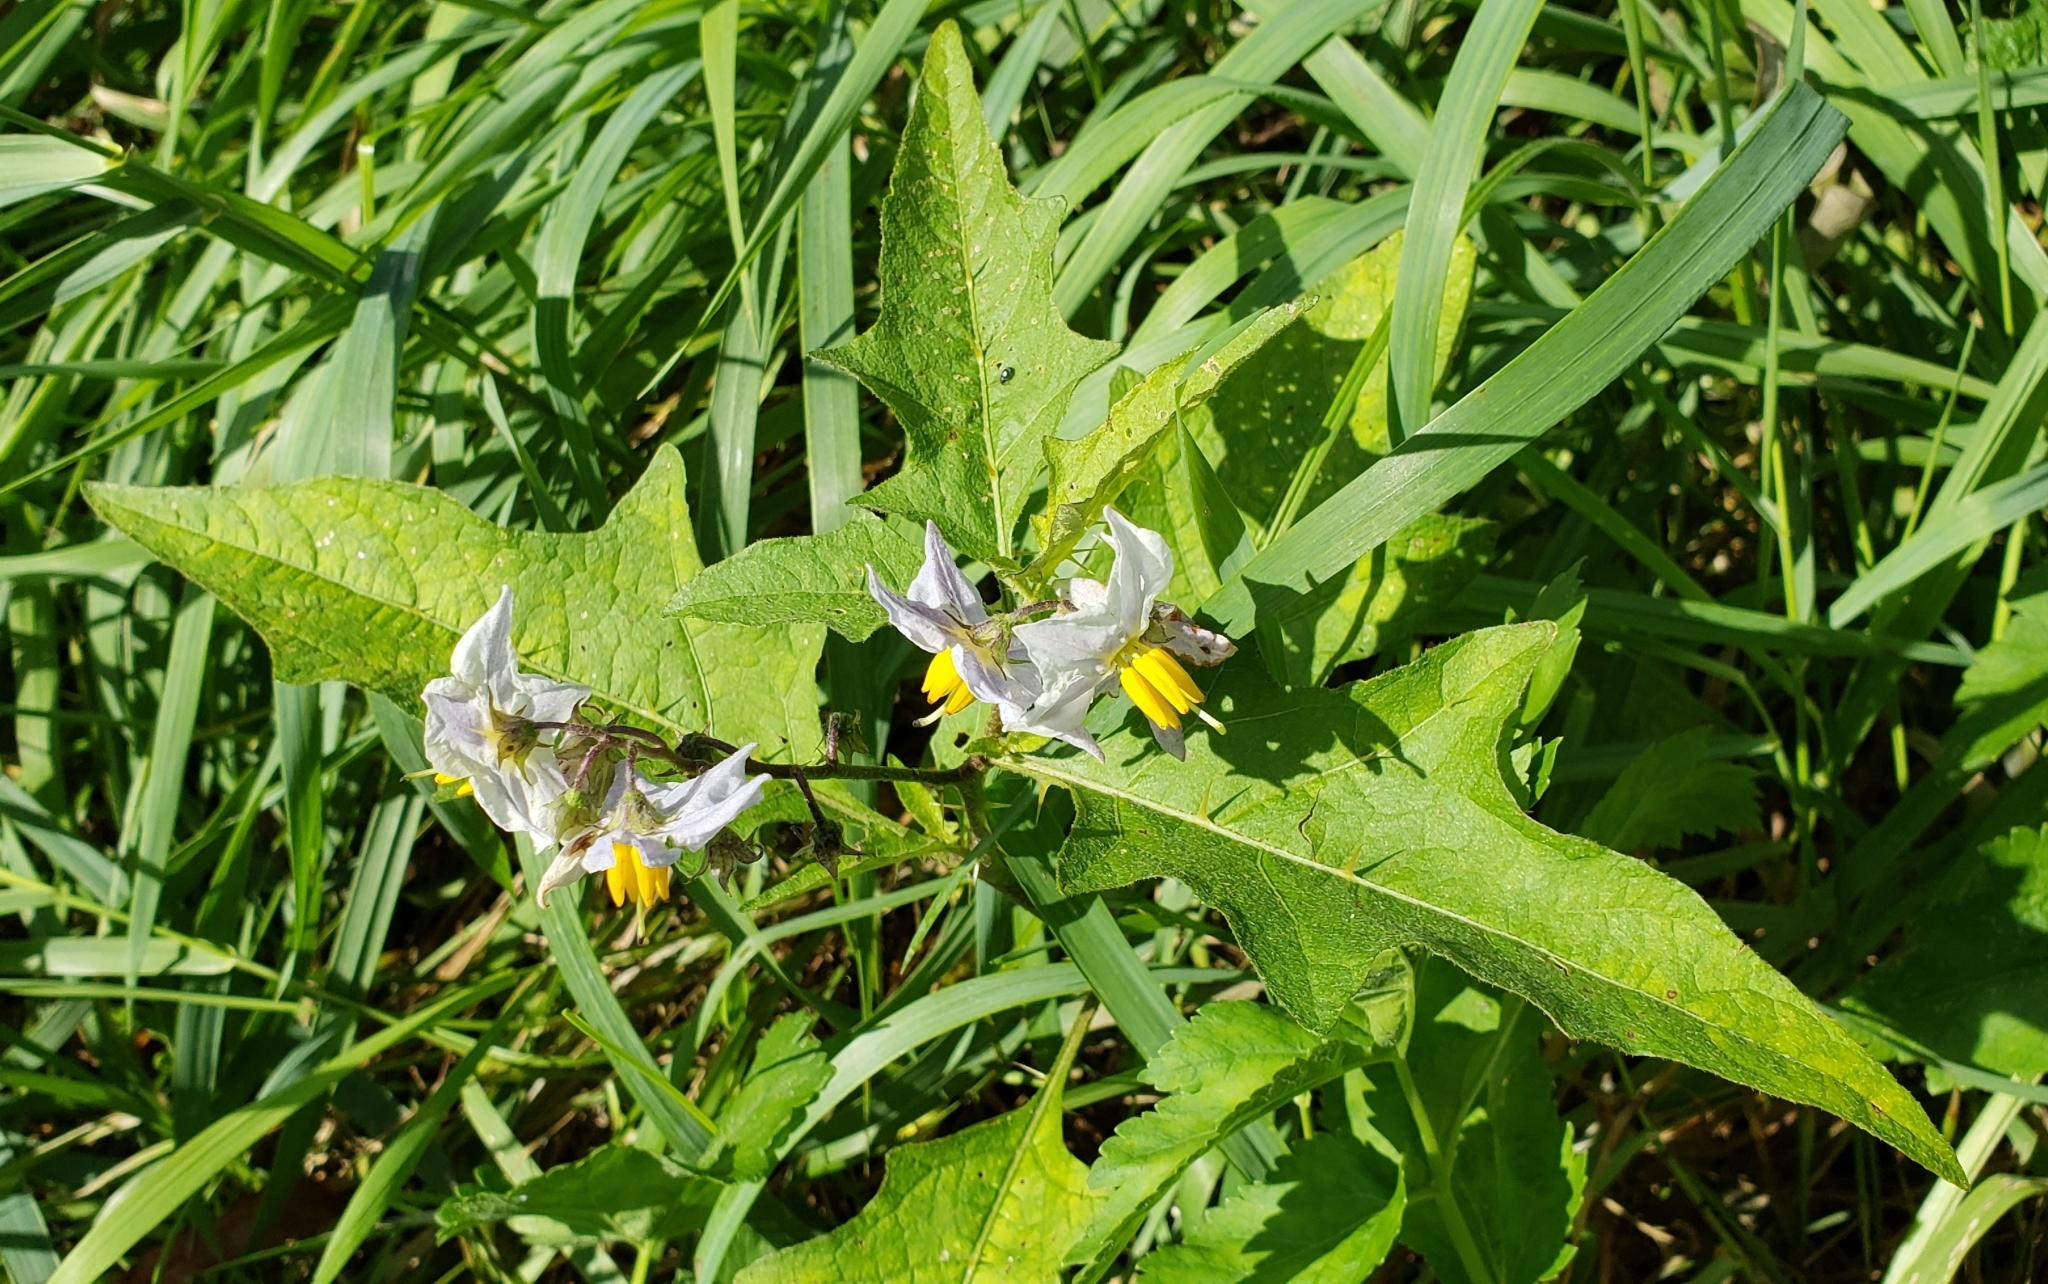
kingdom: Plantae
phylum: Tracheophyta
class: Magnoliopsida
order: Solanales
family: Solanaceae
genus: Solanum
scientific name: Solanum carolinense
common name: Horse-nettle
